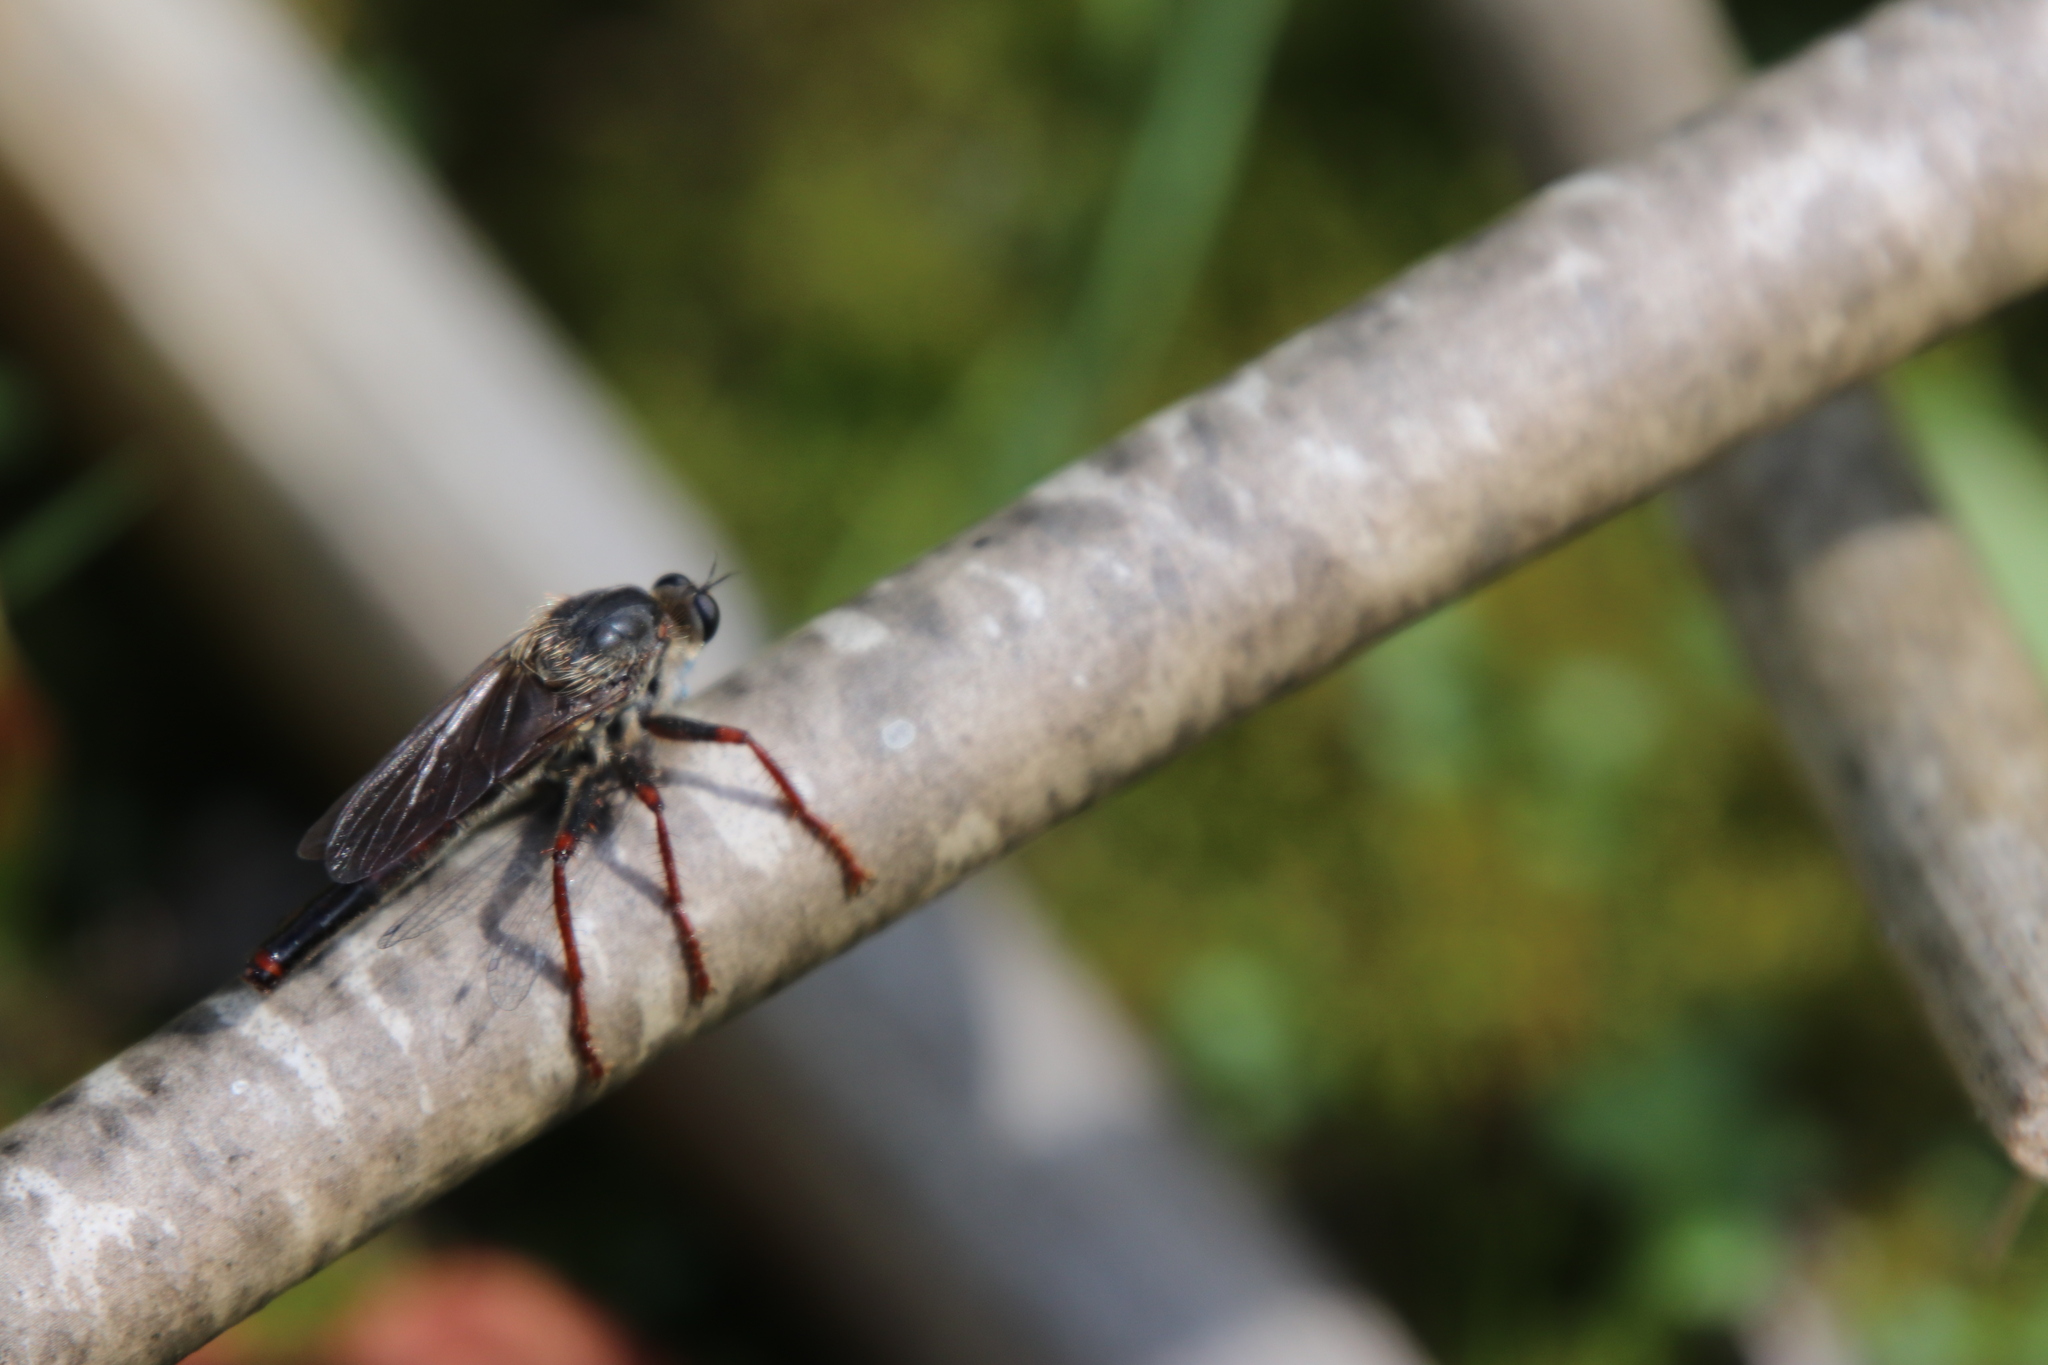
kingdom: Animalia
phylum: Arthropoda
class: Insecta
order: Diptera
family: Asilidae
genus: Stenopogon
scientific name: Stenopogon inquinatus
